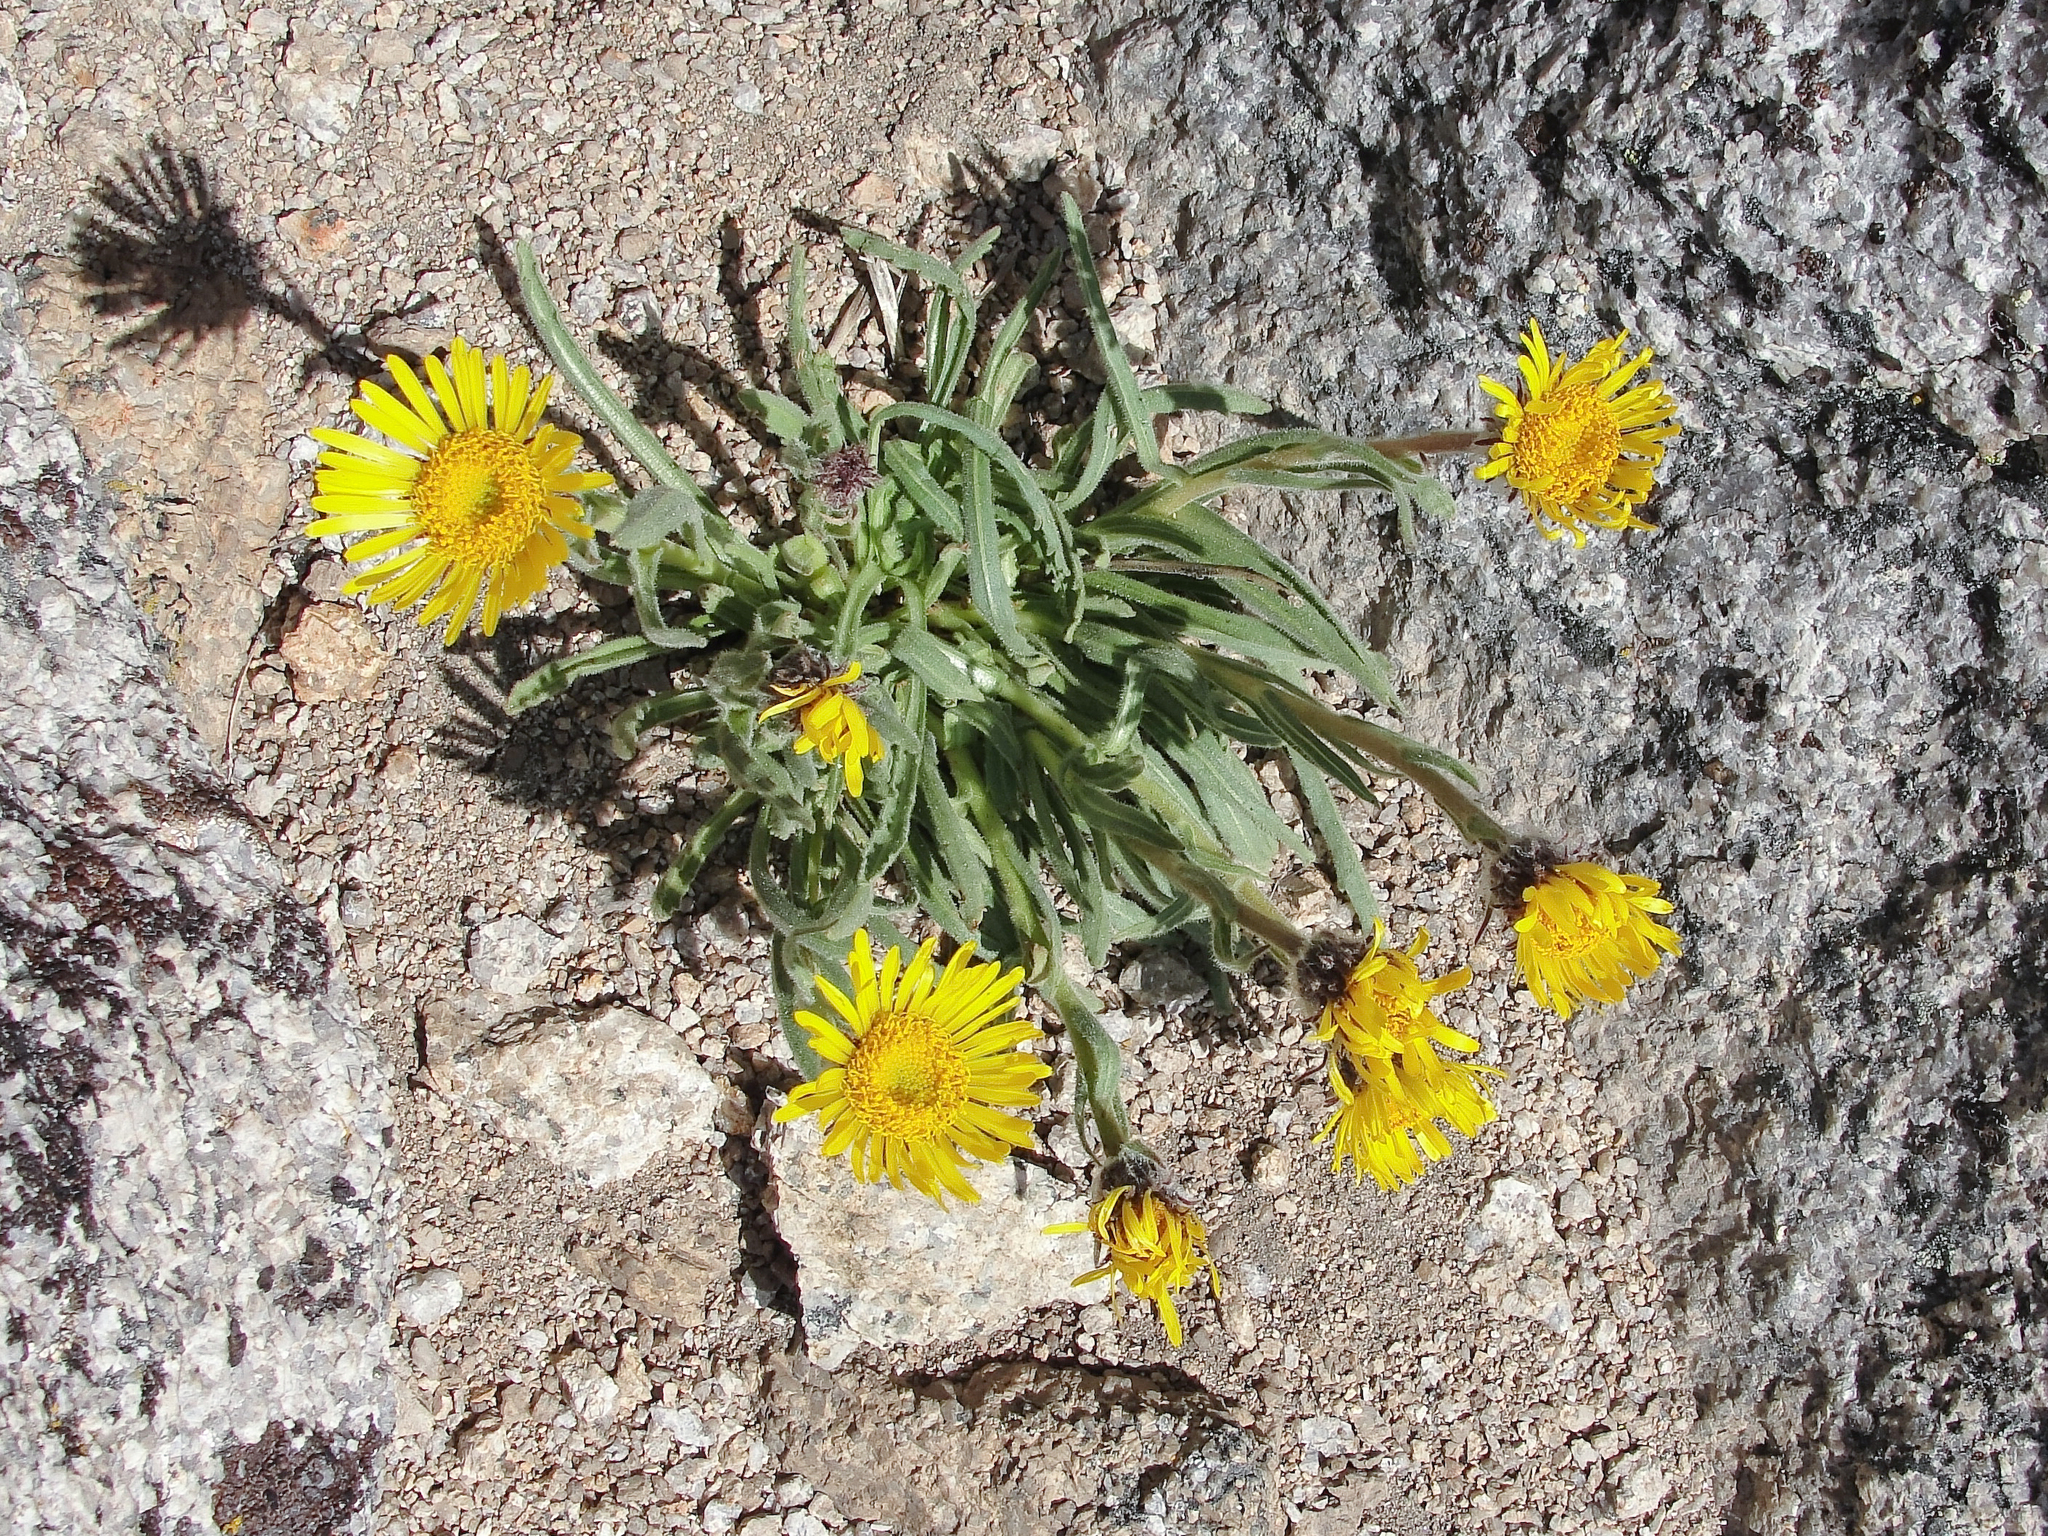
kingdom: Plantae
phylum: Tracheophyta
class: Magnoliopsida
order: Asterales
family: Asteraceae
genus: Hulsea
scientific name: Hulsea algida
